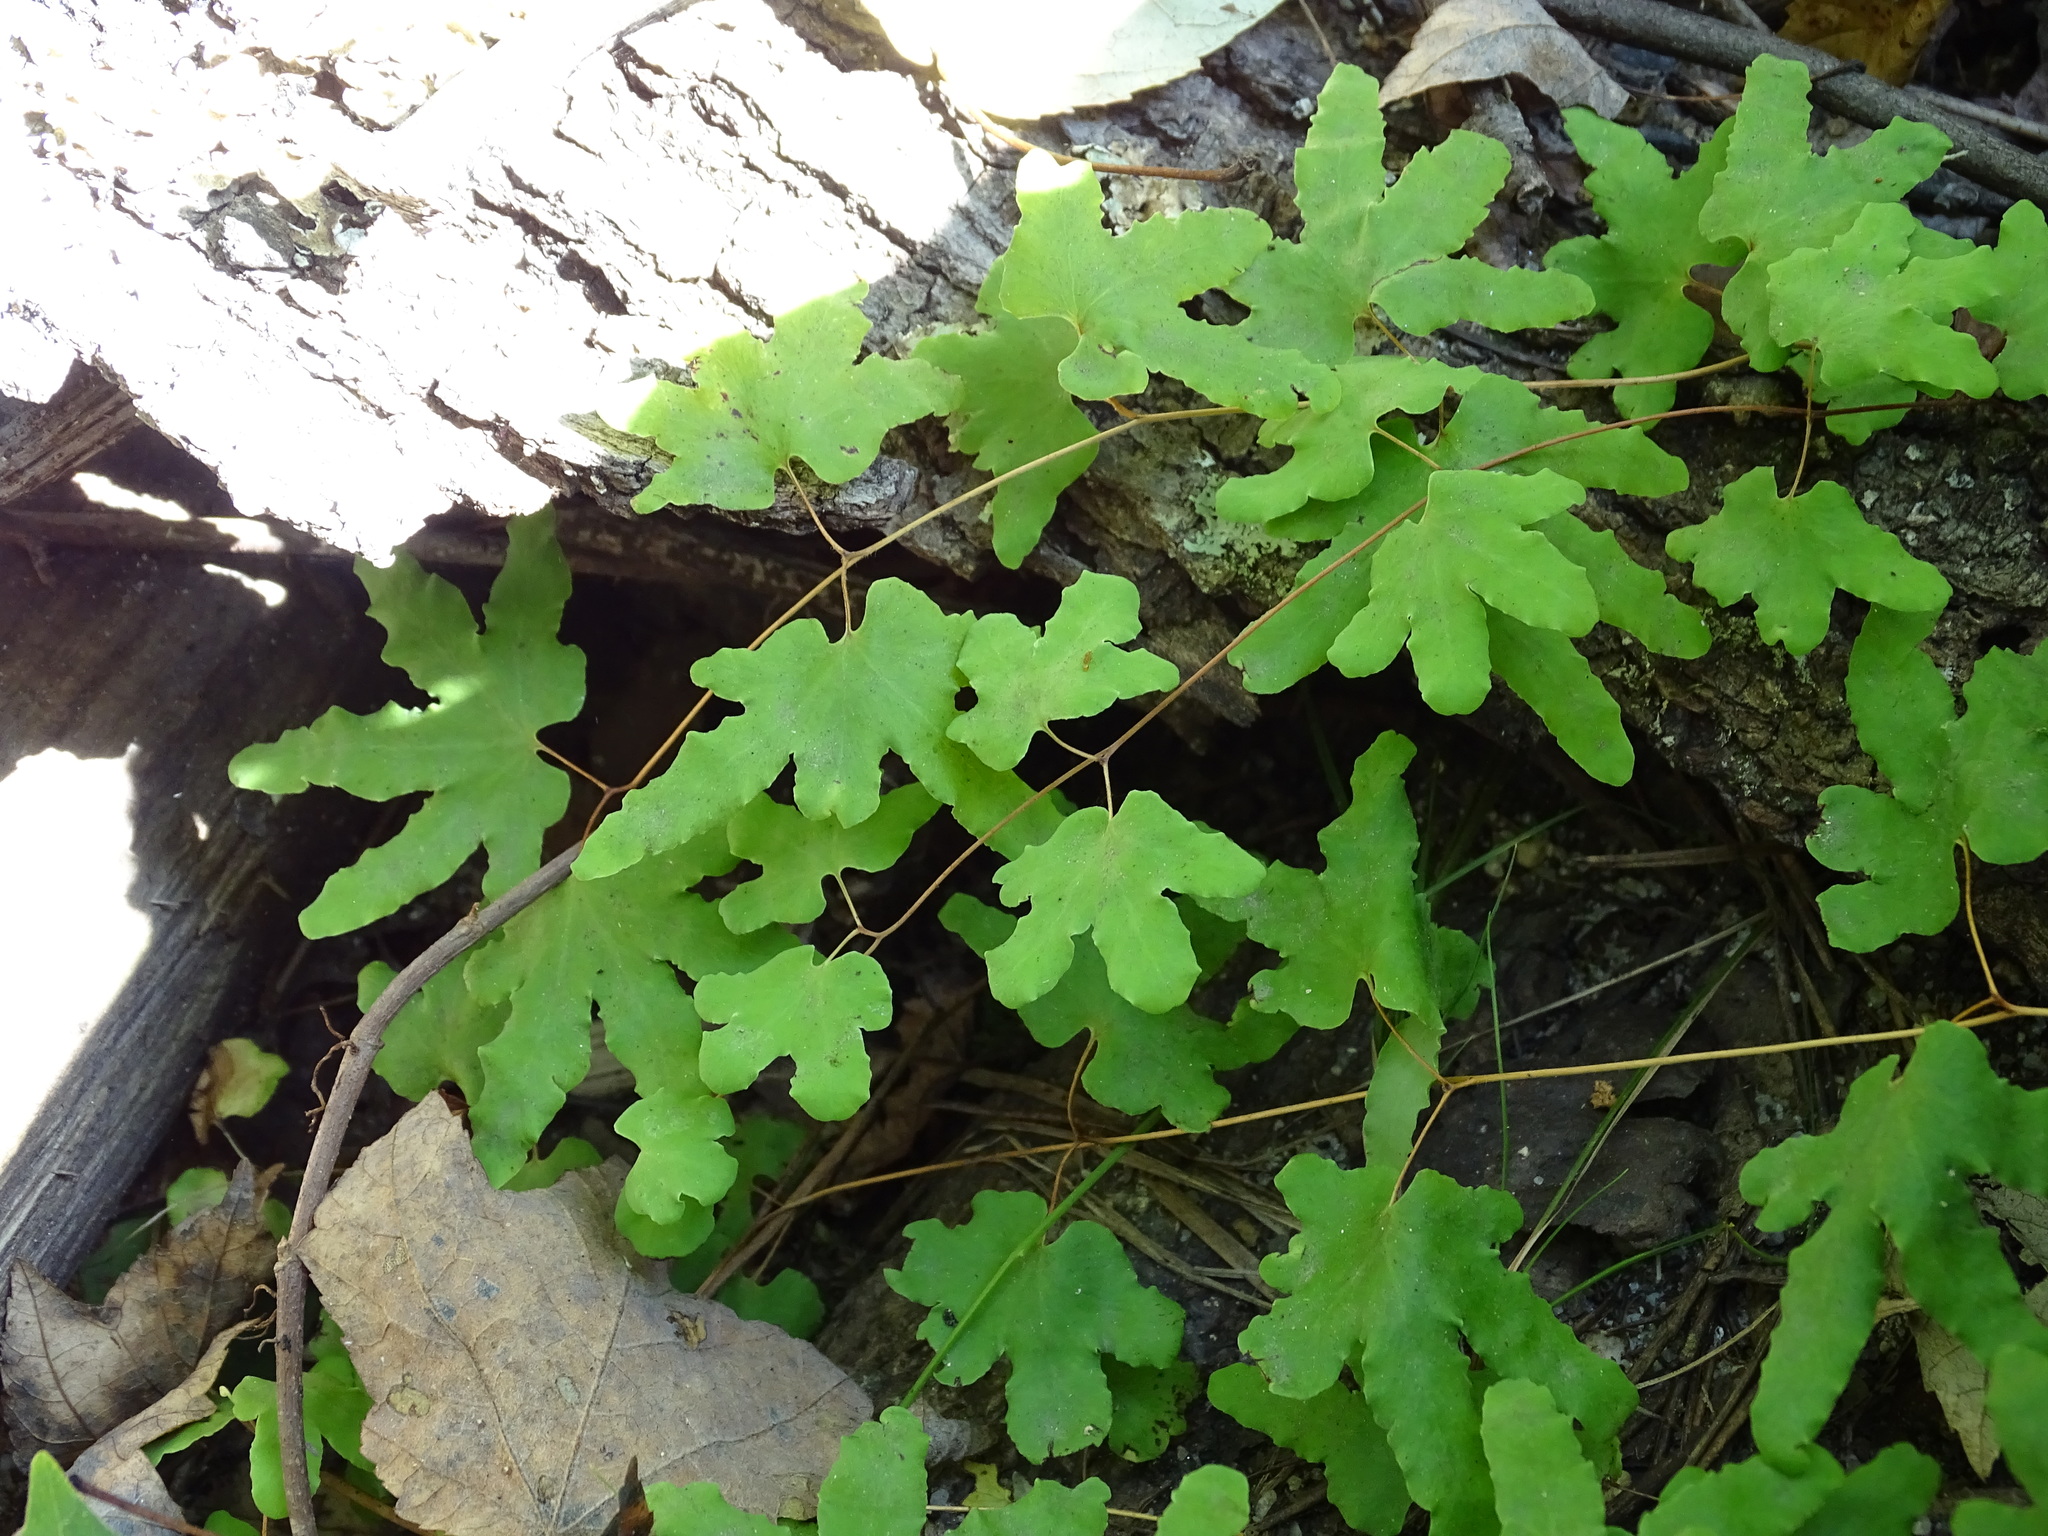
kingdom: Plantae
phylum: Tracheophyta
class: Polypodiopsida
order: Schizaeales
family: Lygodiaceae
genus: Lygodium
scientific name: Lygodium palmatum
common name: American climbing fern
